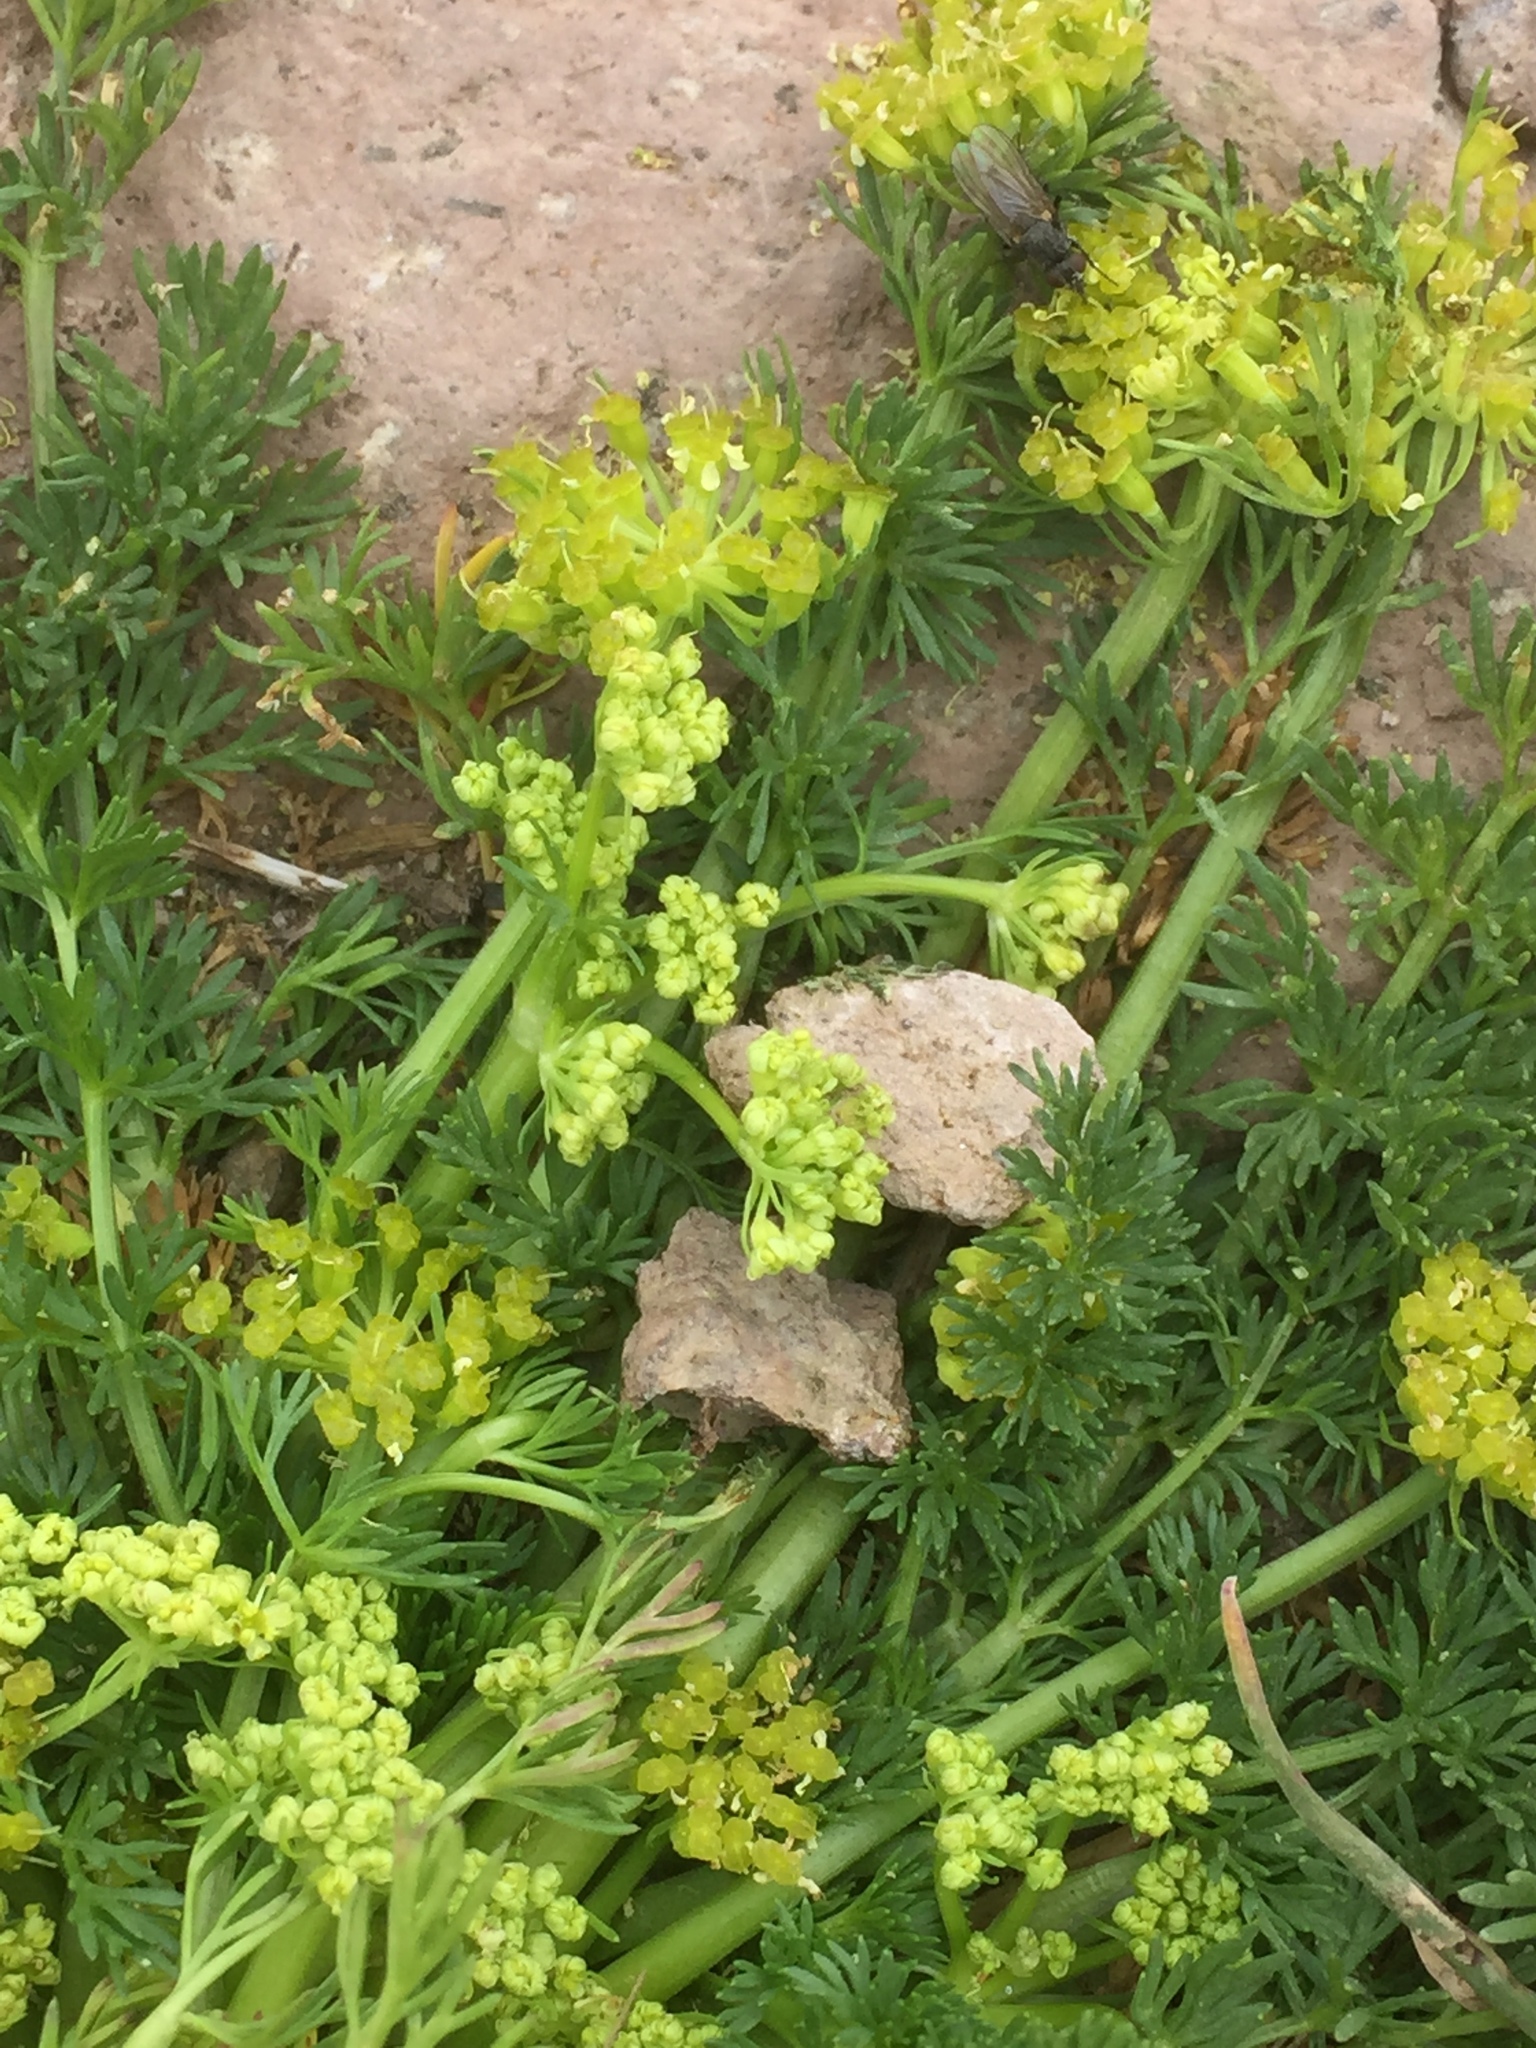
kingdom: Plantae
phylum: Tracheophyta
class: Magnoliopsida
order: Apiales
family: Apiaceae
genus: Chamaesciadium
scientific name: Chamaesciadium acaule
